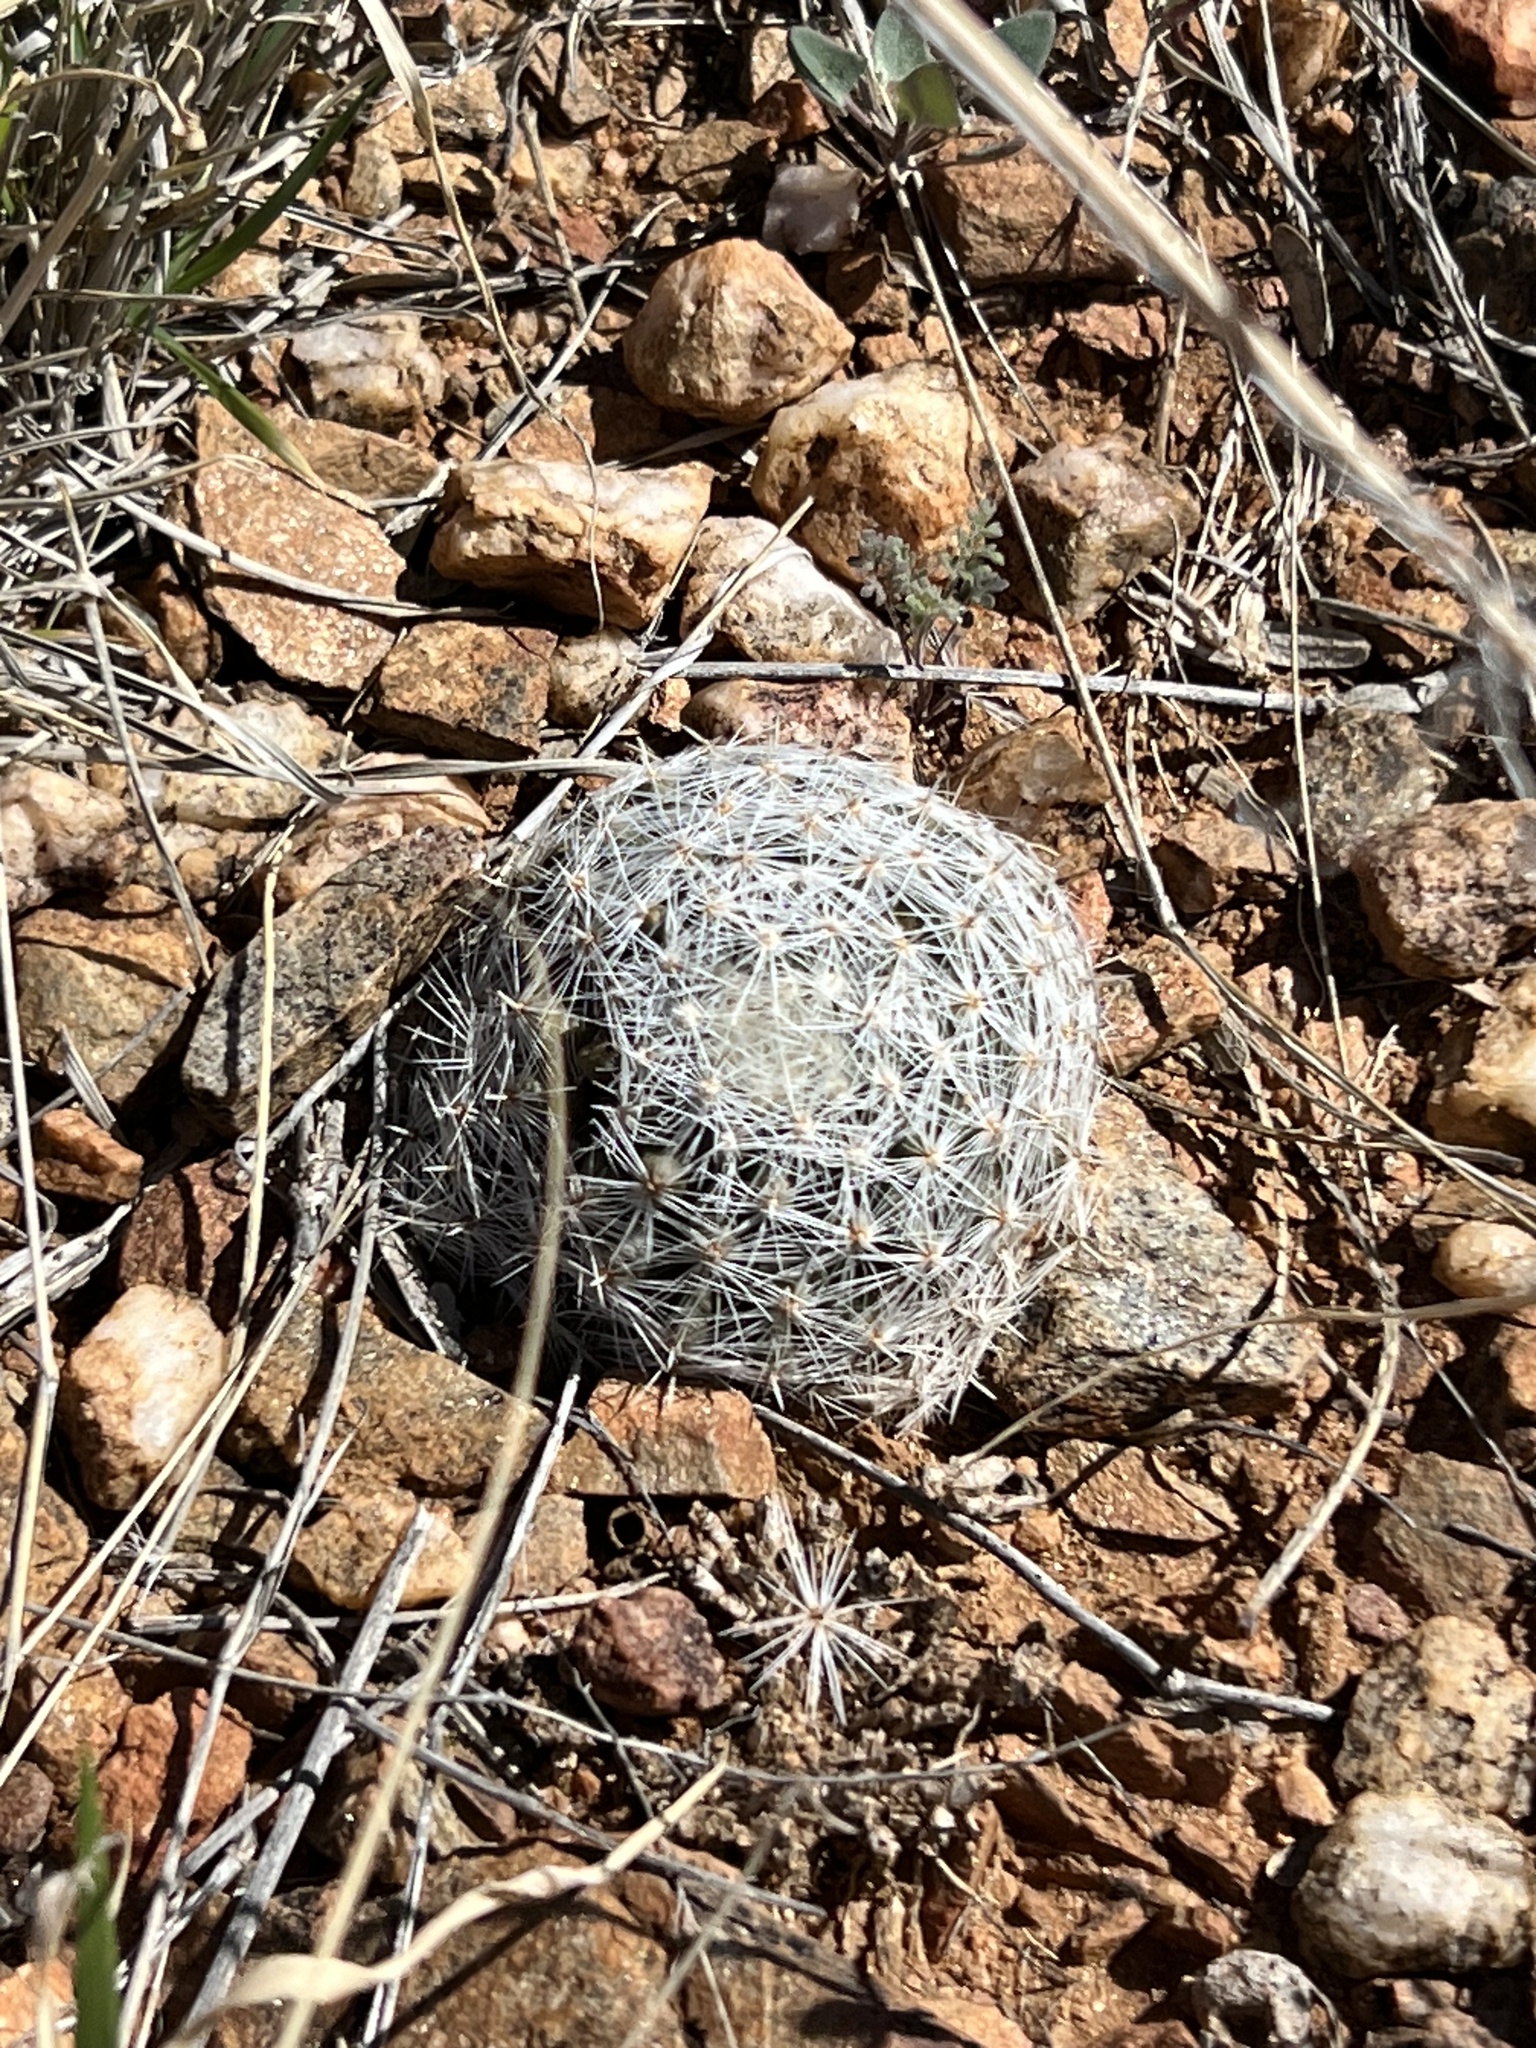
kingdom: Plantae
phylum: Tracheophyta
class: Magnoliopsida
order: Caryophyllales
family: Cactaceae
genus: Pelecyphora
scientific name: Pelecyphora vivipara
